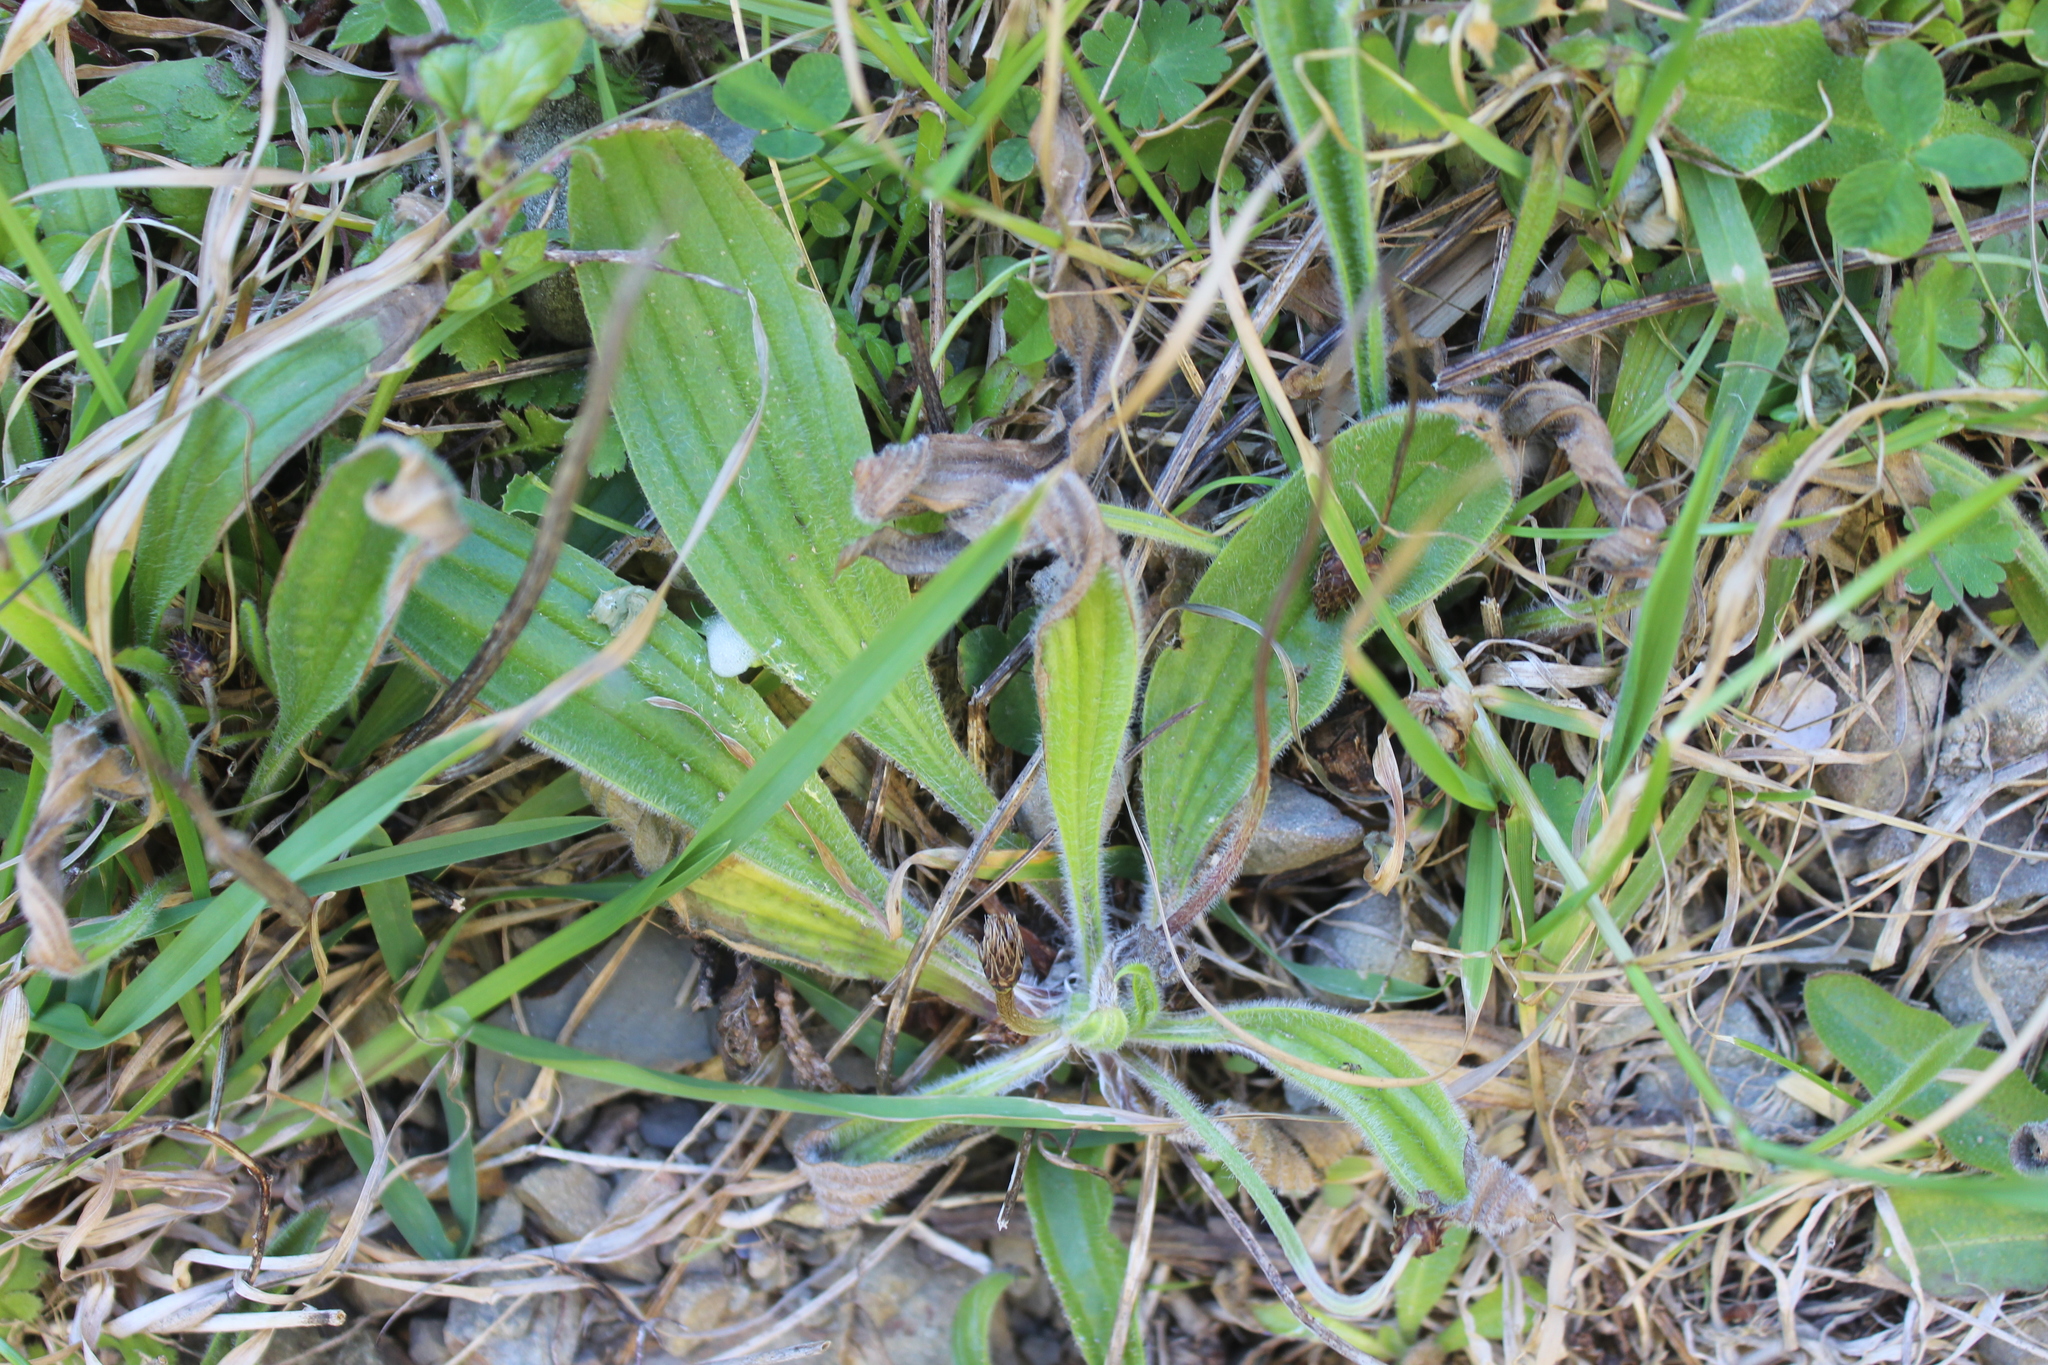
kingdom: Plantae
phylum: Tracheophyta
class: Magnoliopsida
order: Lamiales
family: Plantaginaceae
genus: Plantago
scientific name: Plantago lanceolata
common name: Ribwort plantain
